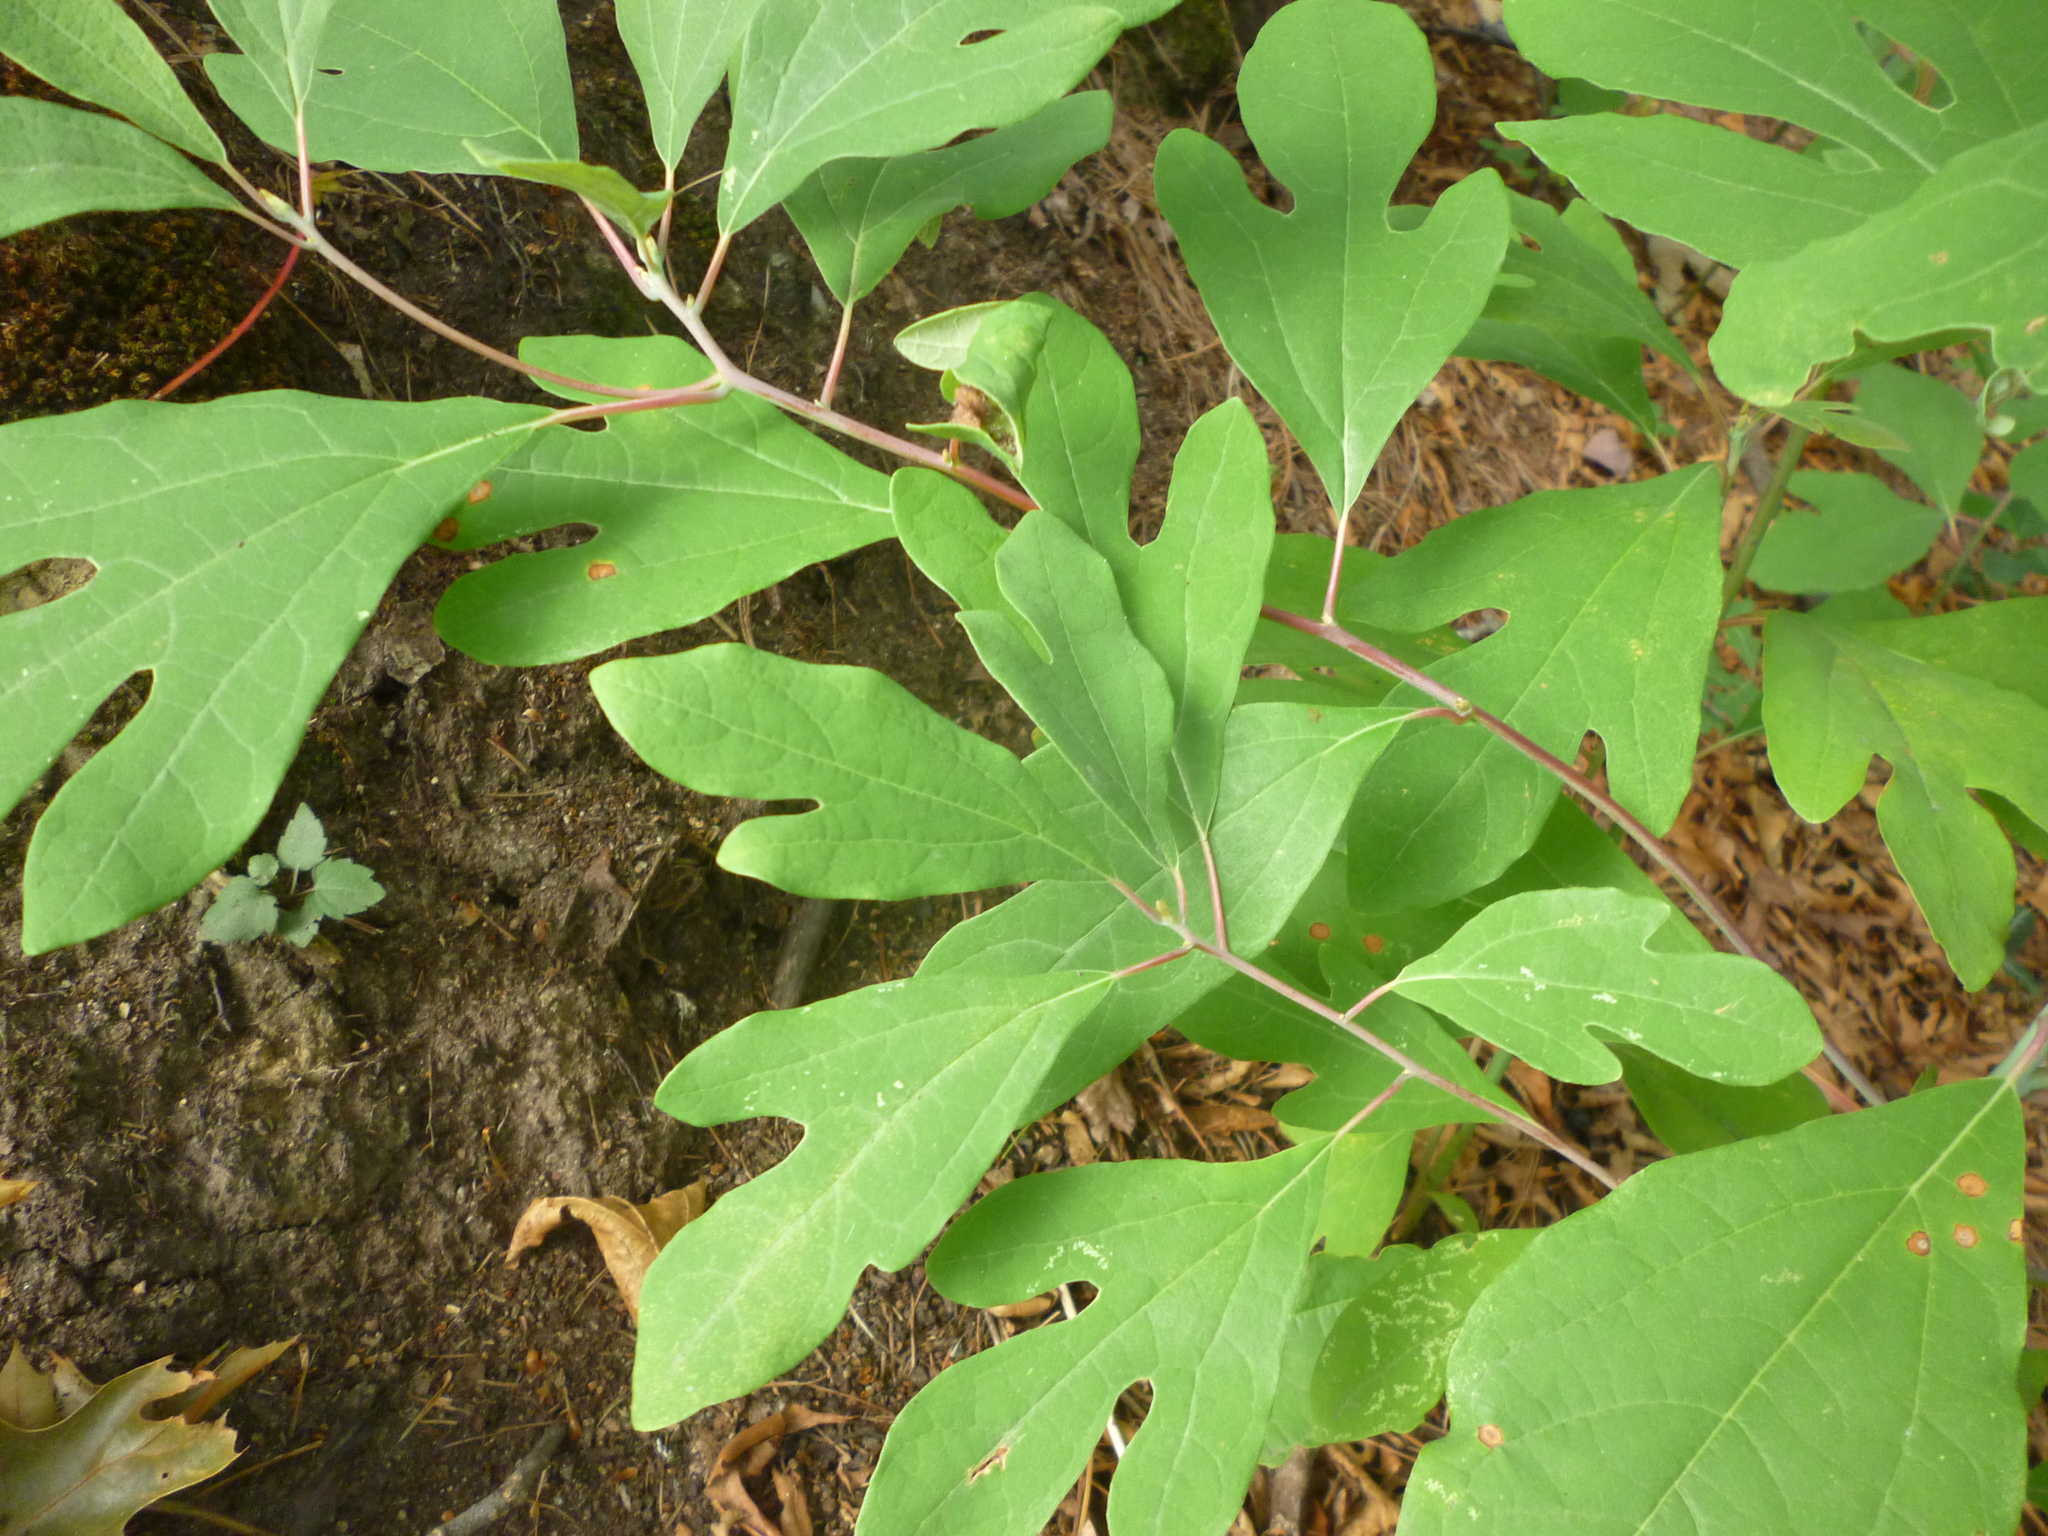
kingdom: Plantae
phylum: Tracheophyta
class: Magnoliopsida
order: Laurales
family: Lauraceae
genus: Sassafras
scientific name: Sassafras albidum
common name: Sassafras
